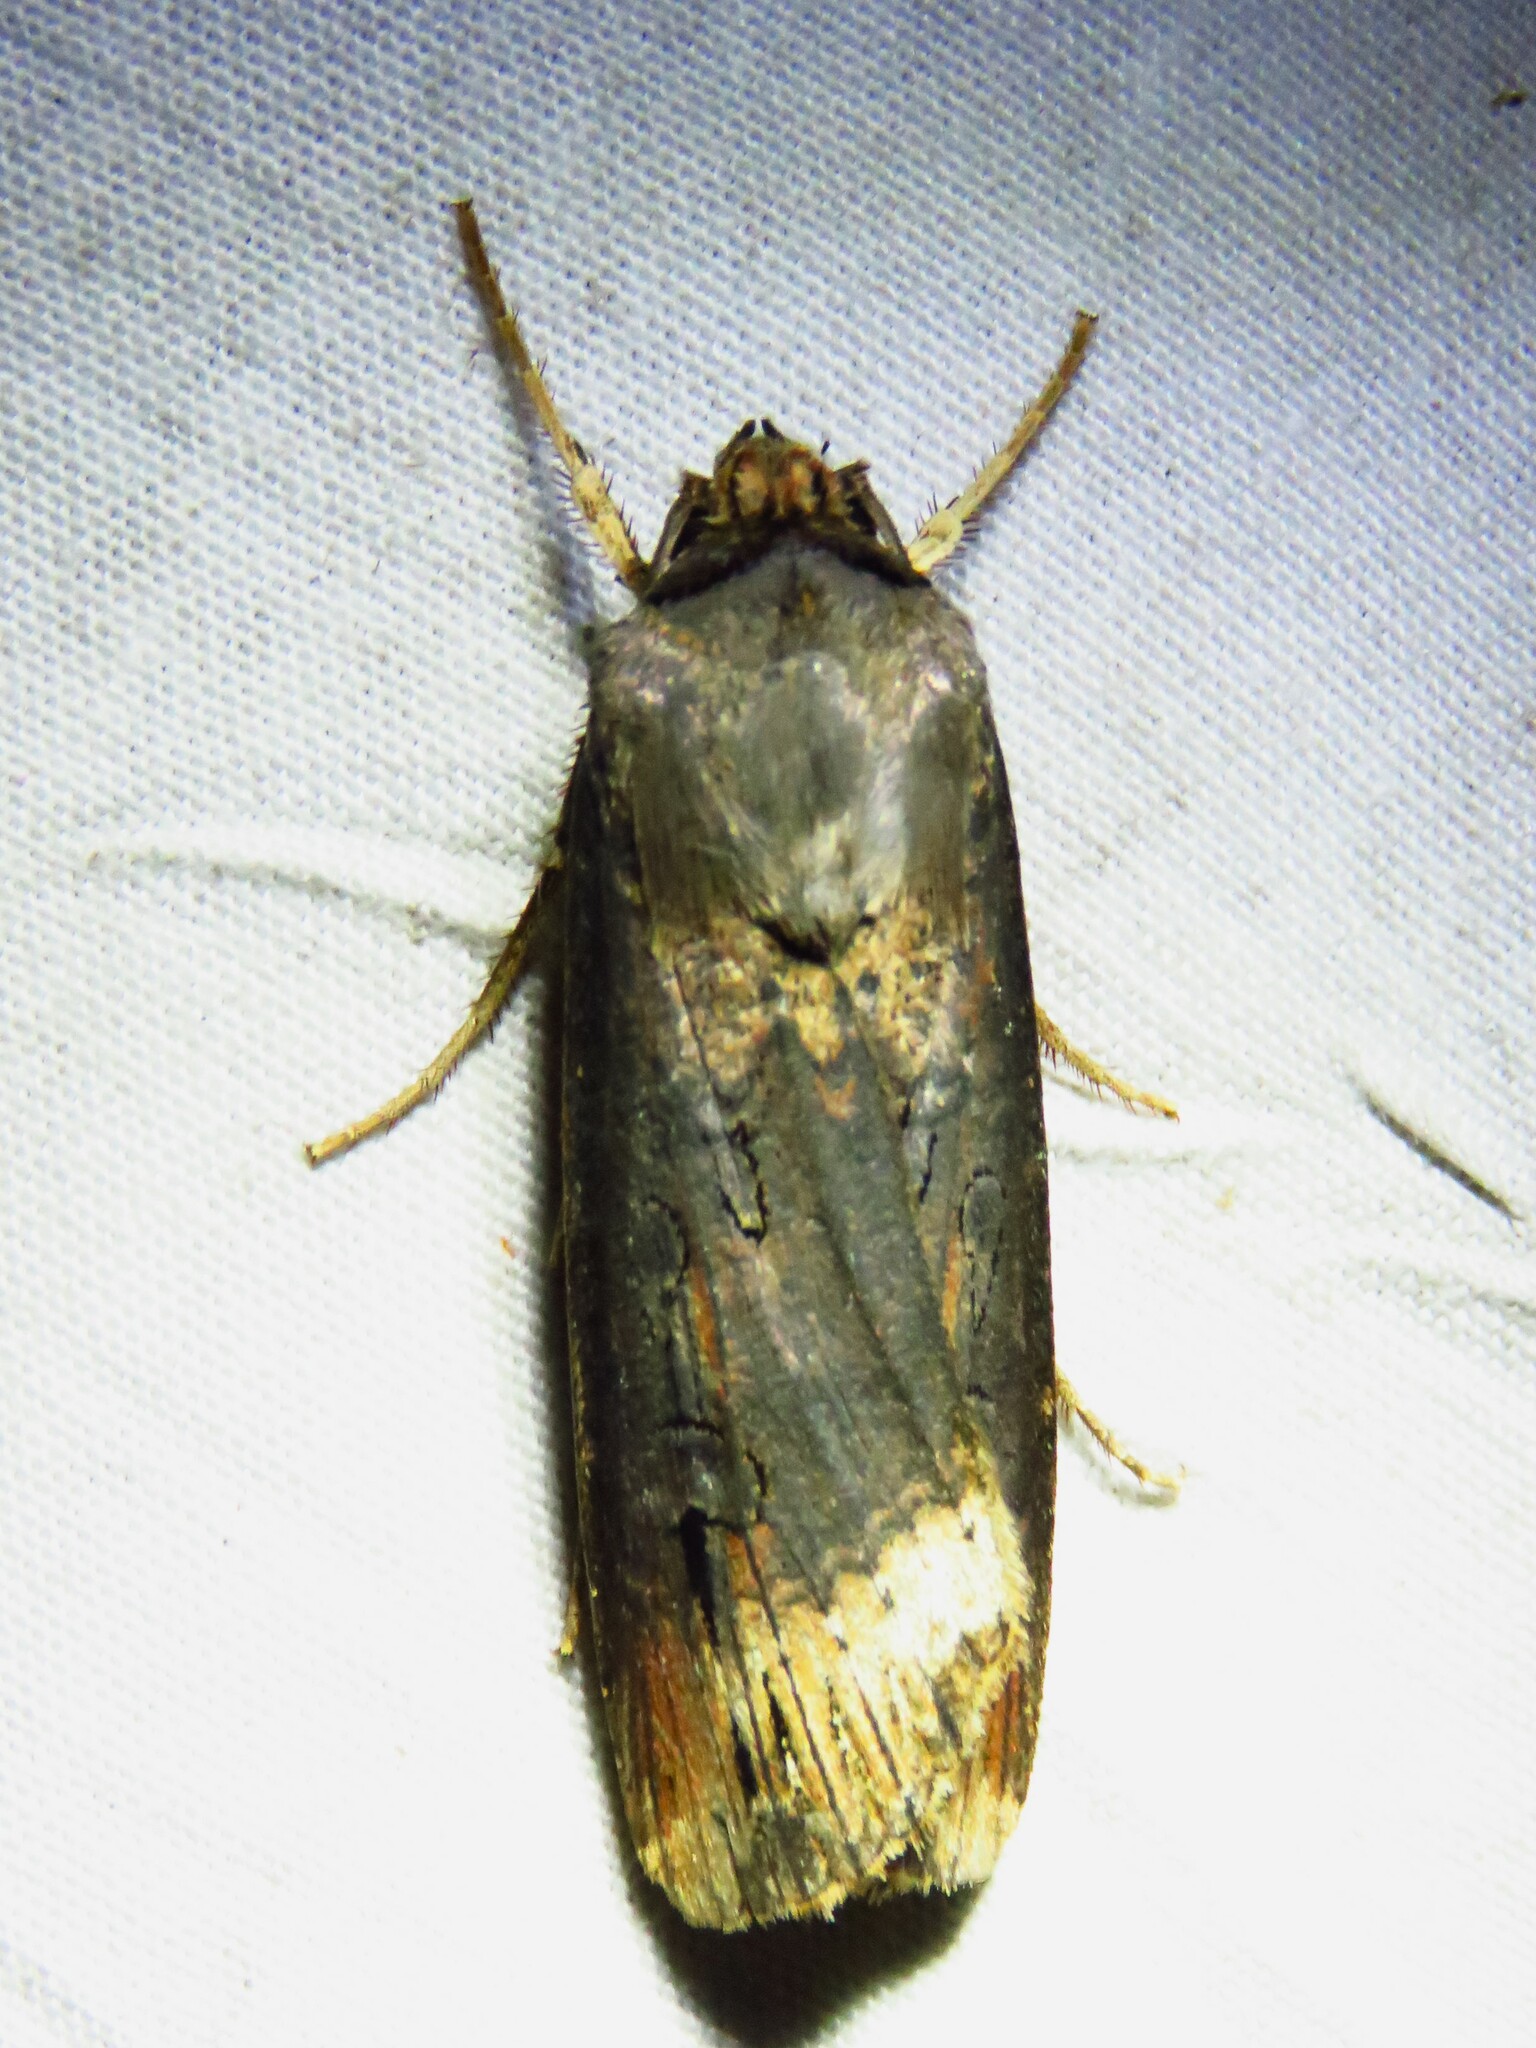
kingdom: Animalia
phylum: Arthropoda
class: Insecta
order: Lepidoptera
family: Noctuidae
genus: Agrotis
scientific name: Agrotis ipsilon
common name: Dark sword-grass
